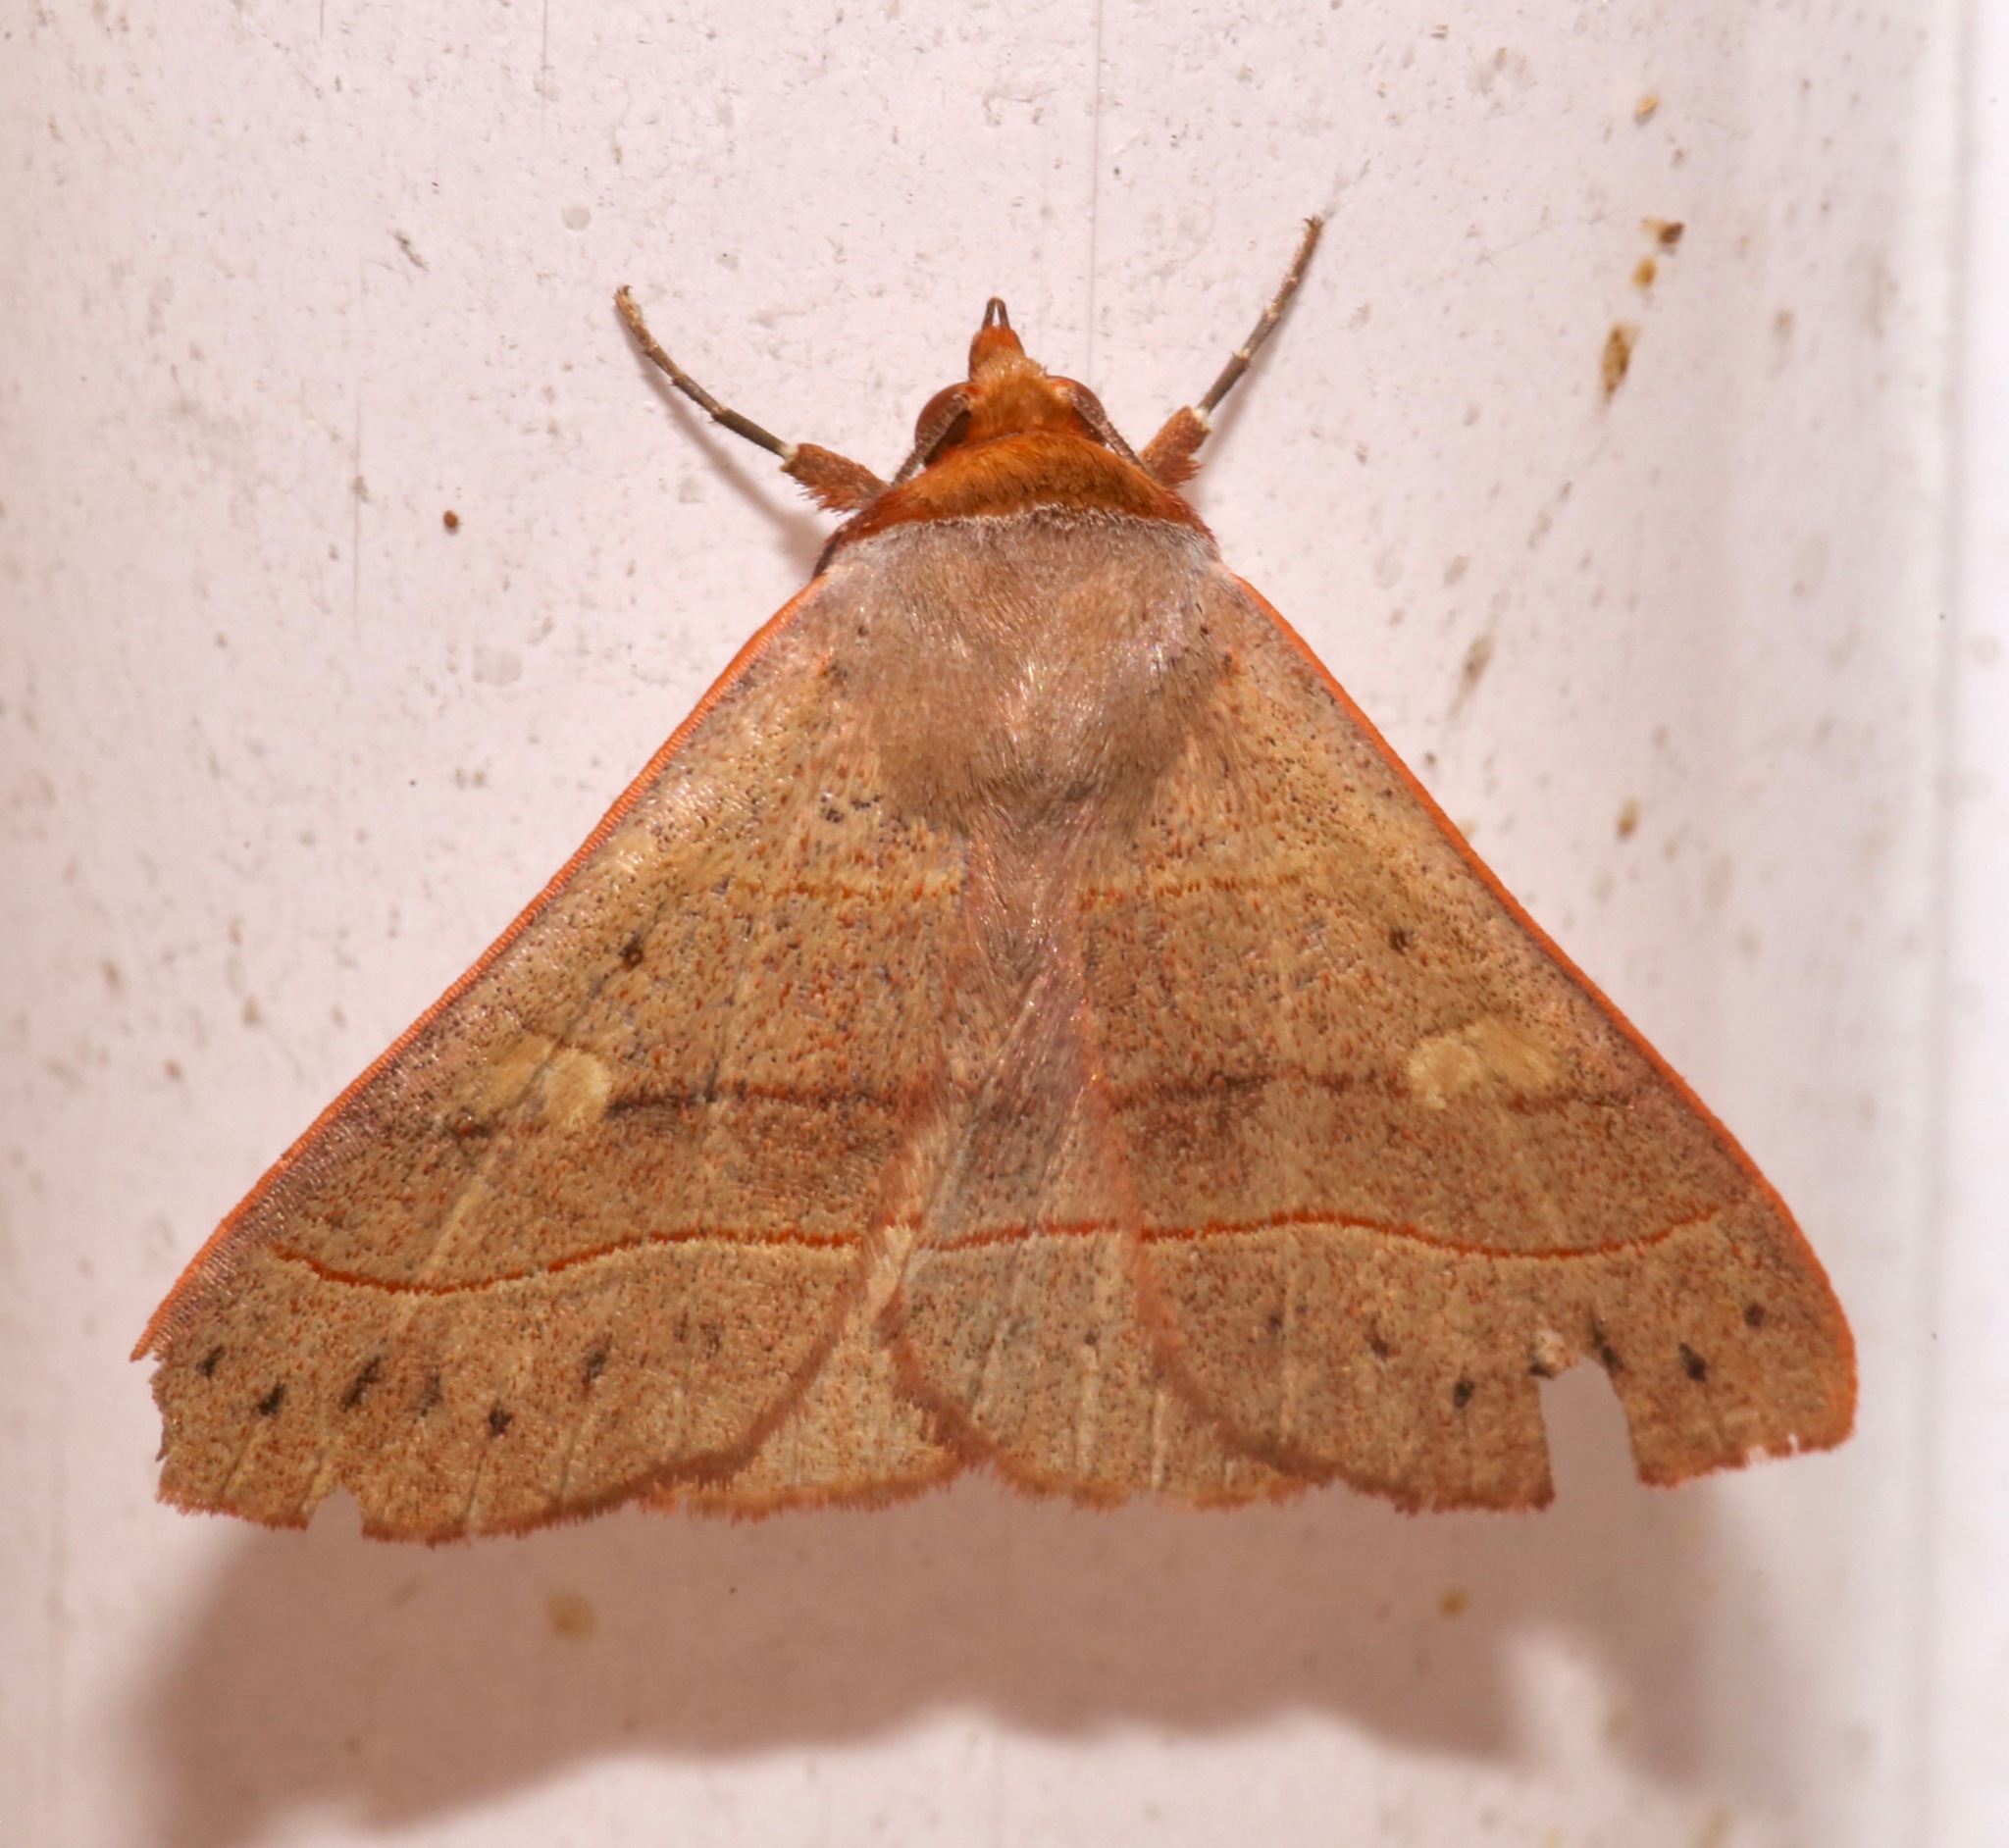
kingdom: Animalia
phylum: Arthropoda
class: Insecta
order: Lepidoptera
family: Erebidae
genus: Panopoda
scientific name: Panopoda rufimargo
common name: Red-lined panopoda moth
